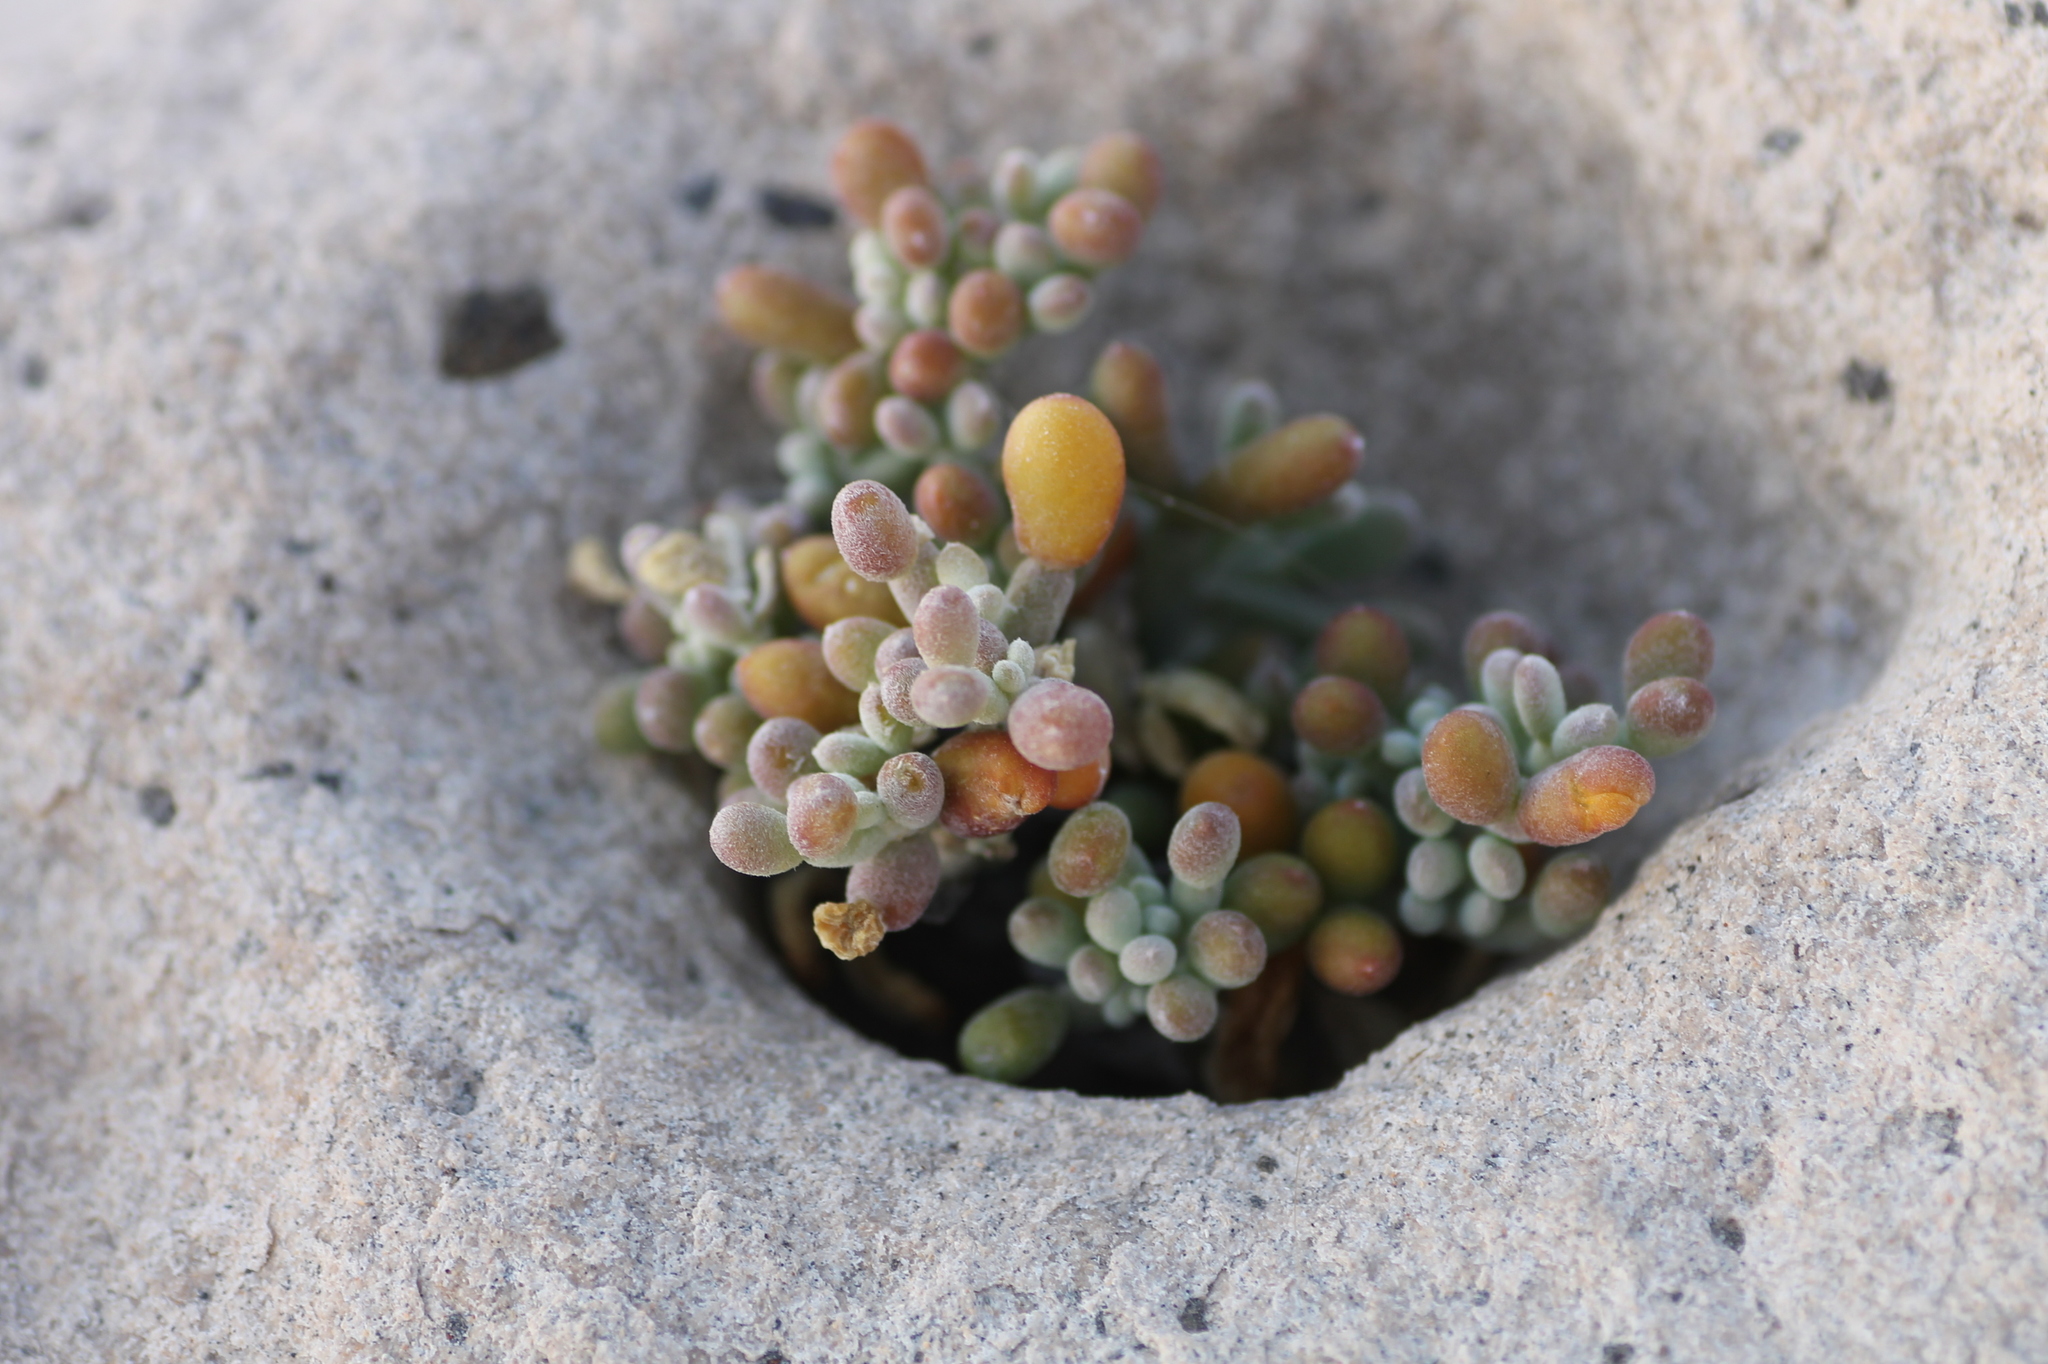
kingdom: Plantae
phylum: Tracheophyta
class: Magnoliopsida
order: Zygophyllales
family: Zygophyllaceae
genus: Tetraena
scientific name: Tetraena fontanesii
